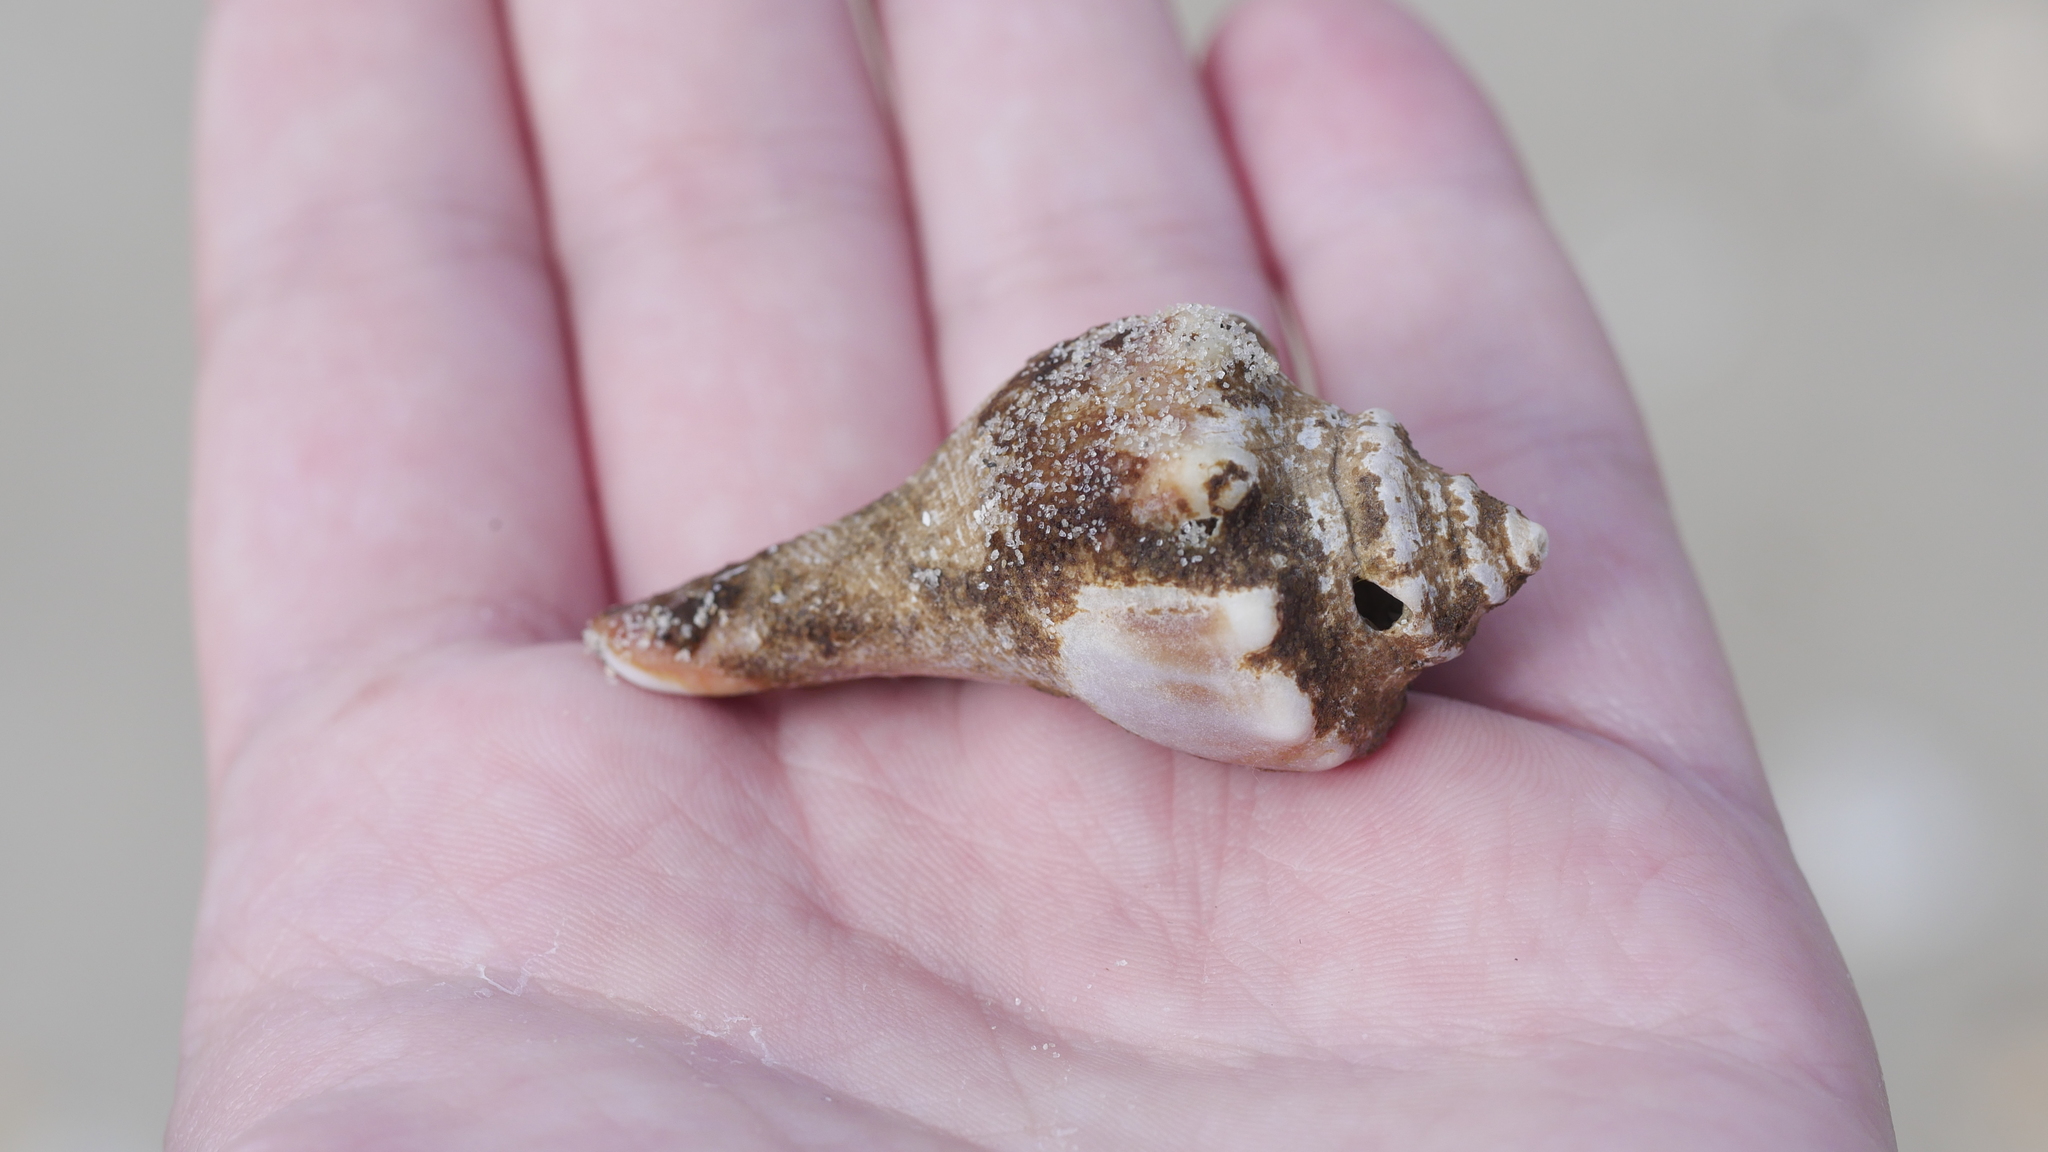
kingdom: Animalia
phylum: Mollusca
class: Gastropoda
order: Neogastropoda
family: Busyconidae
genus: Busycon
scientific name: Busycon carica
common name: Knobbed whelk
